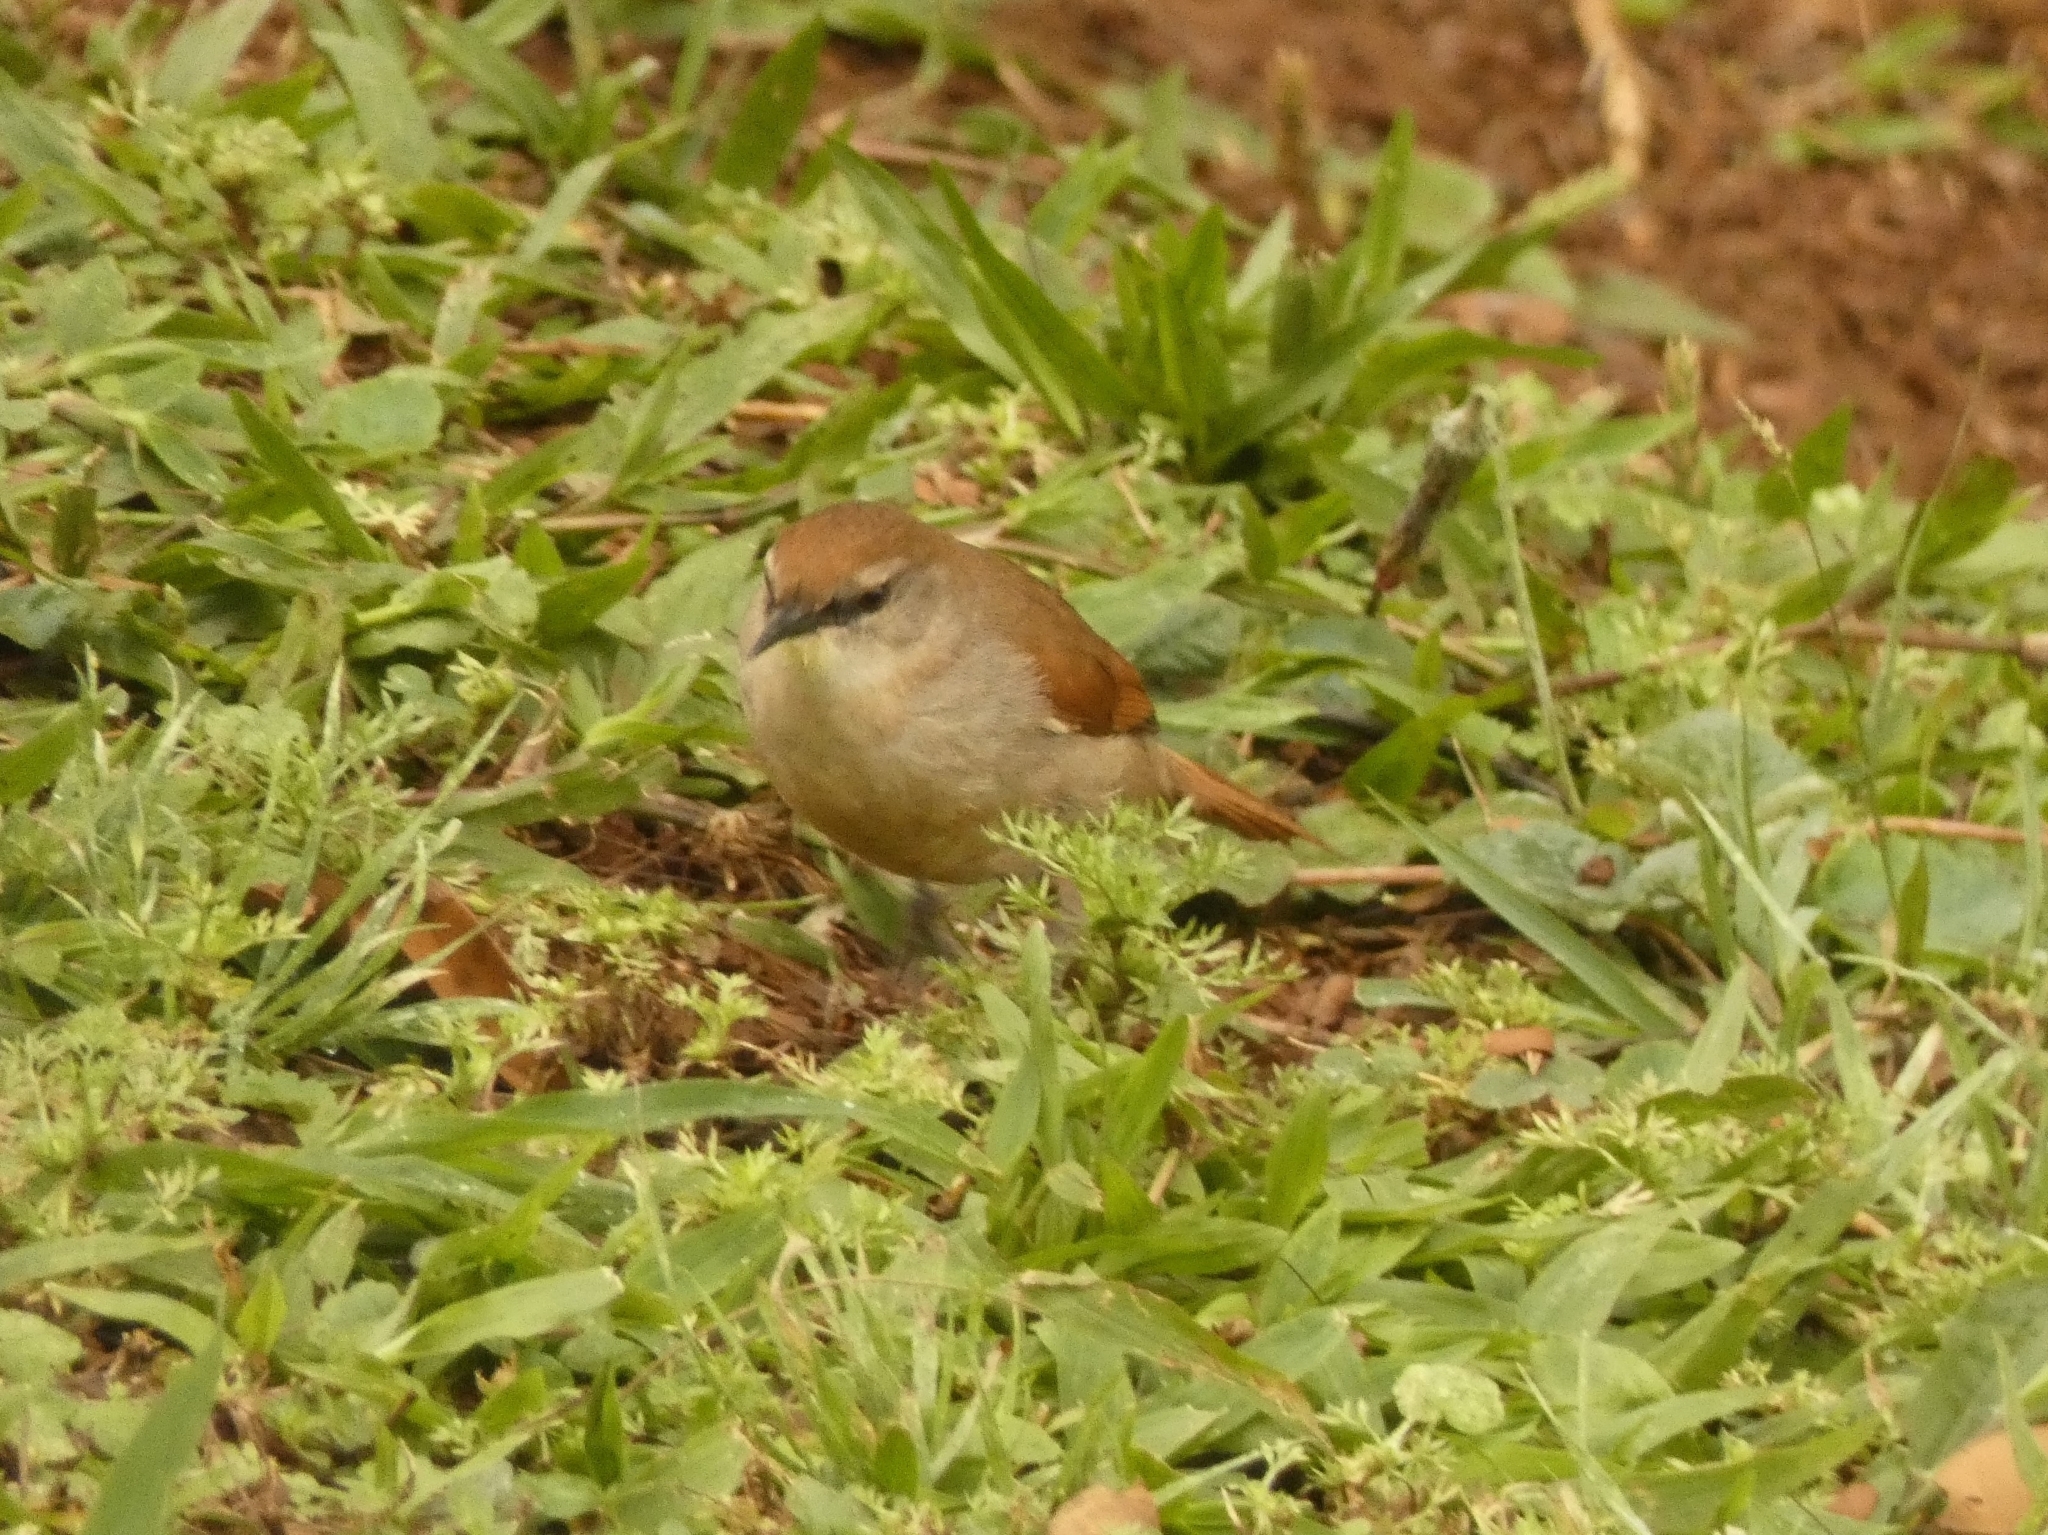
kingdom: Animalia
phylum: Chordata
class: Aves
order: Passeriformes
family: Furnariidae
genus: Certhiaxis
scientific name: Certhiaxis cinnamomeus
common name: Yellow-chinned spinetail
